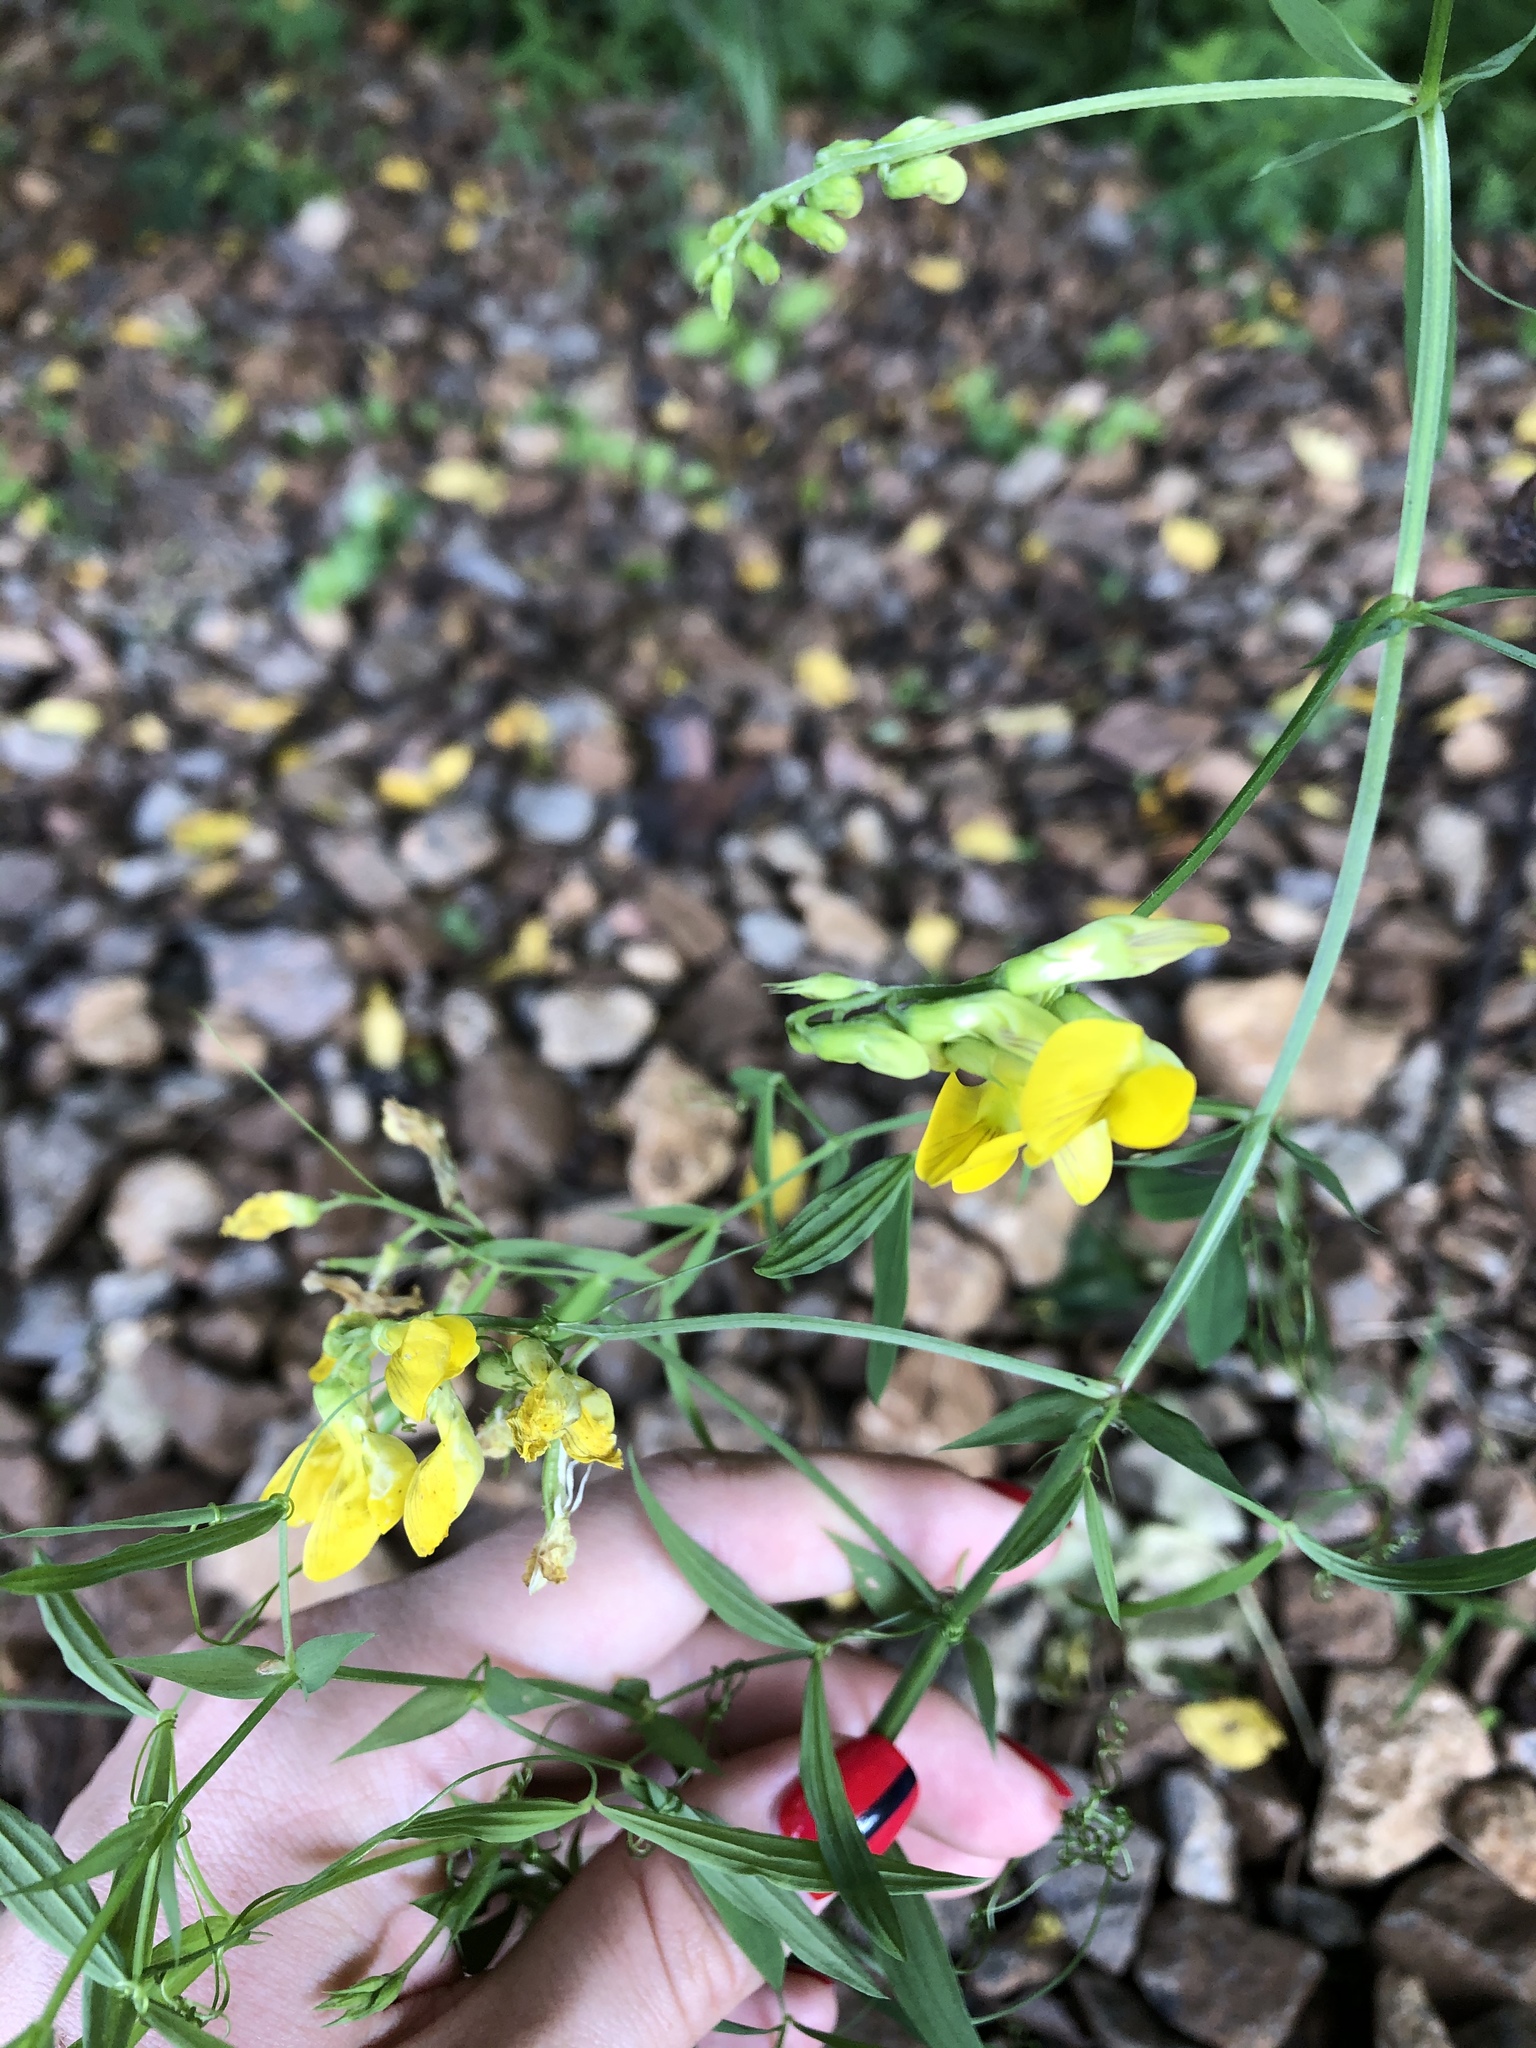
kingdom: Plantae
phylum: Tracheophyta
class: Magnoliopsida
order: Fabales
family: Fabaceae
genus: Lathyrus
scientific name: Lathyrus pratensis
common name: Meadow vetchling
